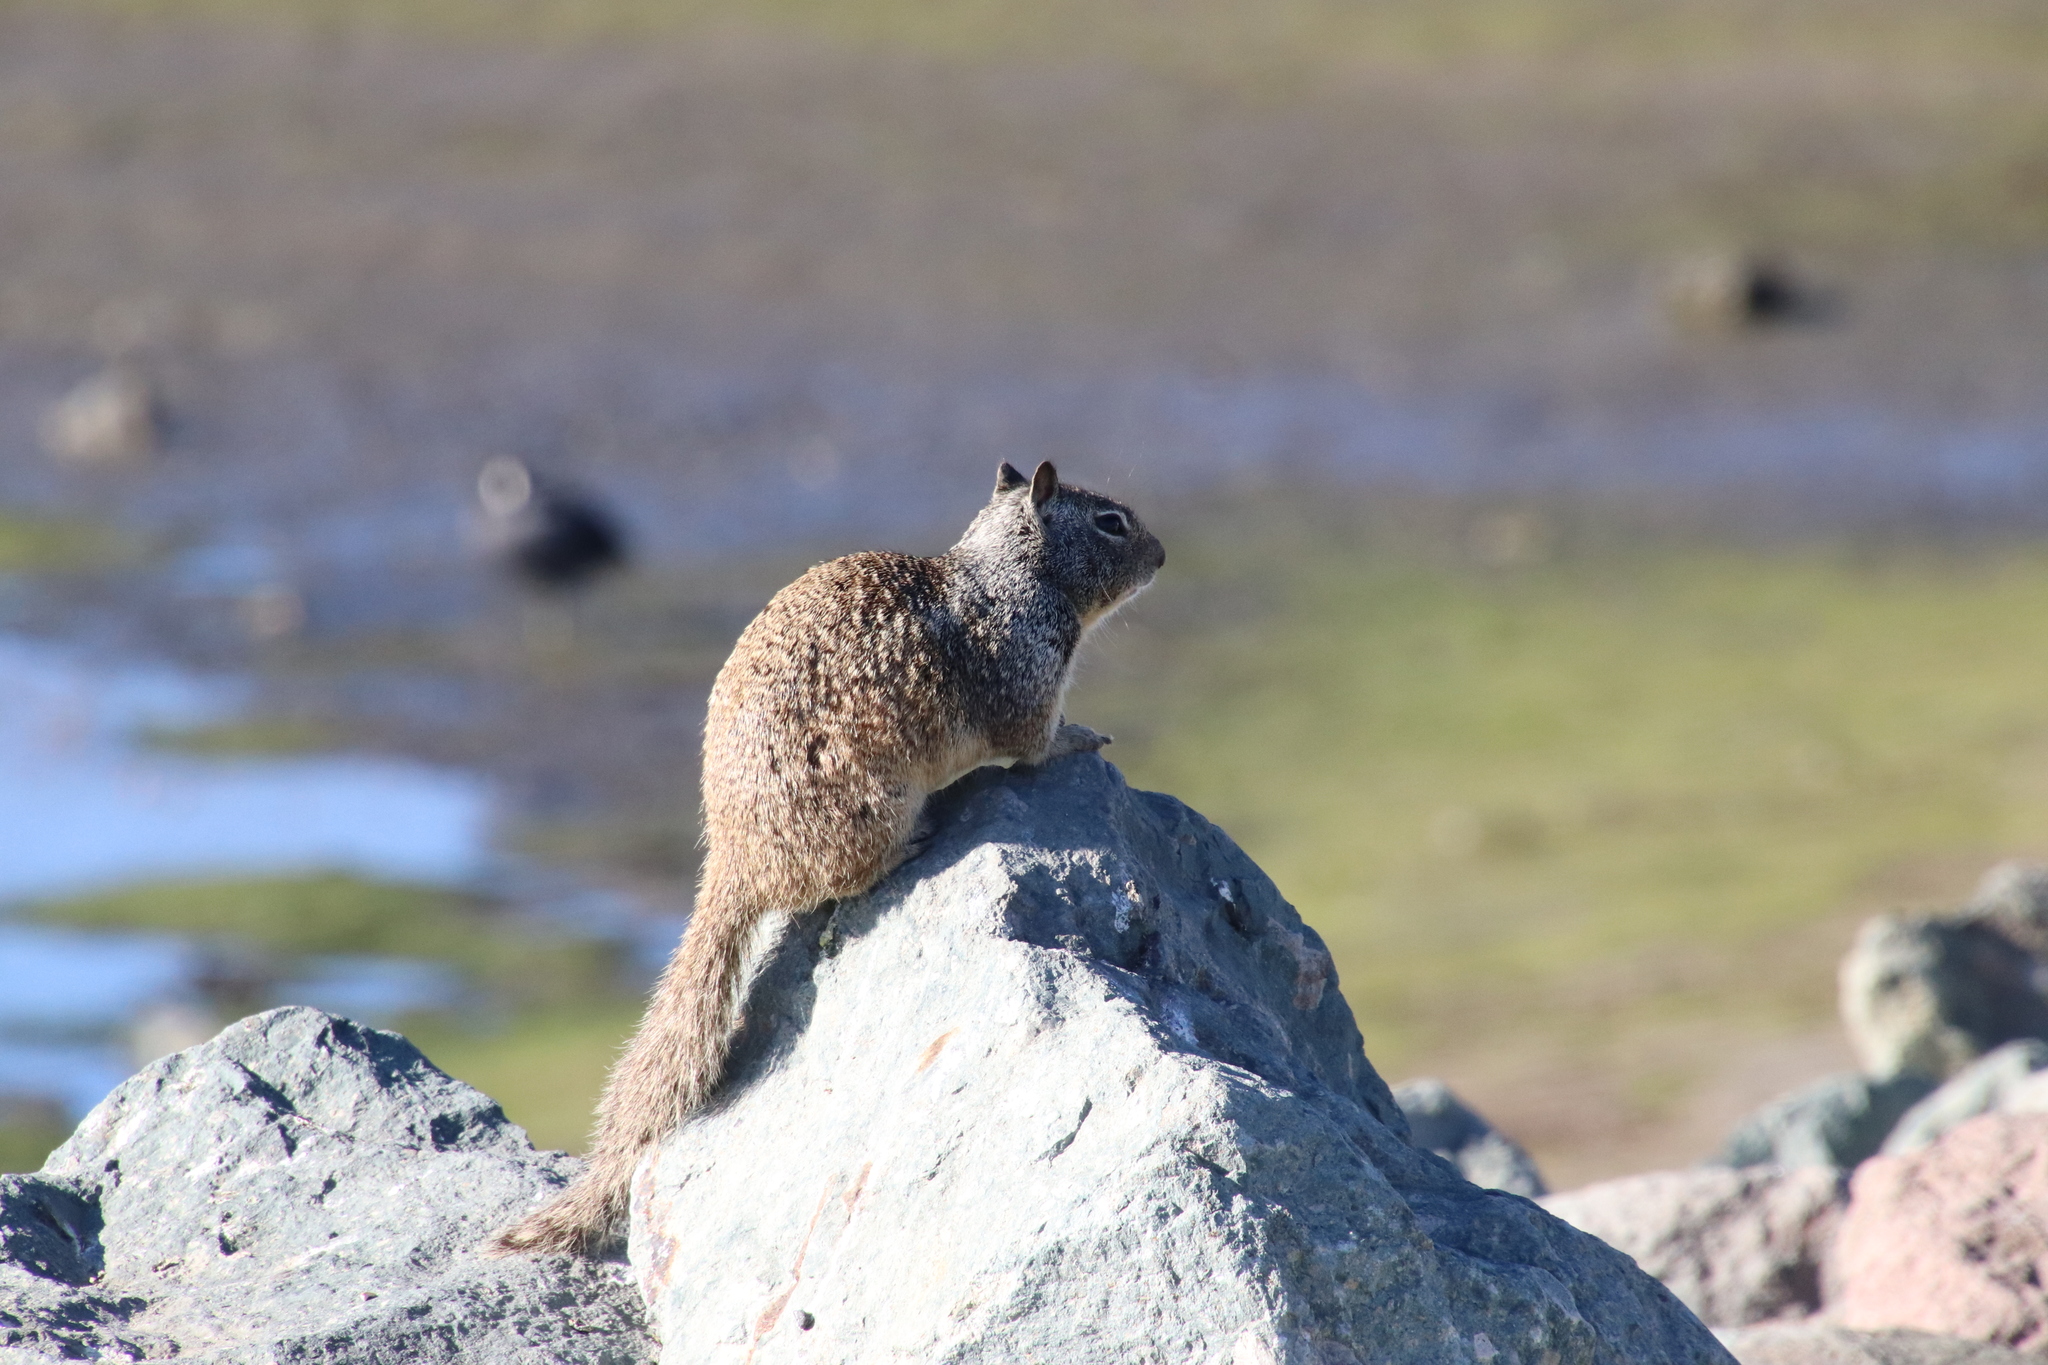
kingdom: Animalia
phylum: Chordata
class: Mammalia
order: Rodentia
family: Sciuridae
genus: Otospermophilus
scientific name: Otospermophilus beecheyi
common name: California ground squirrel
